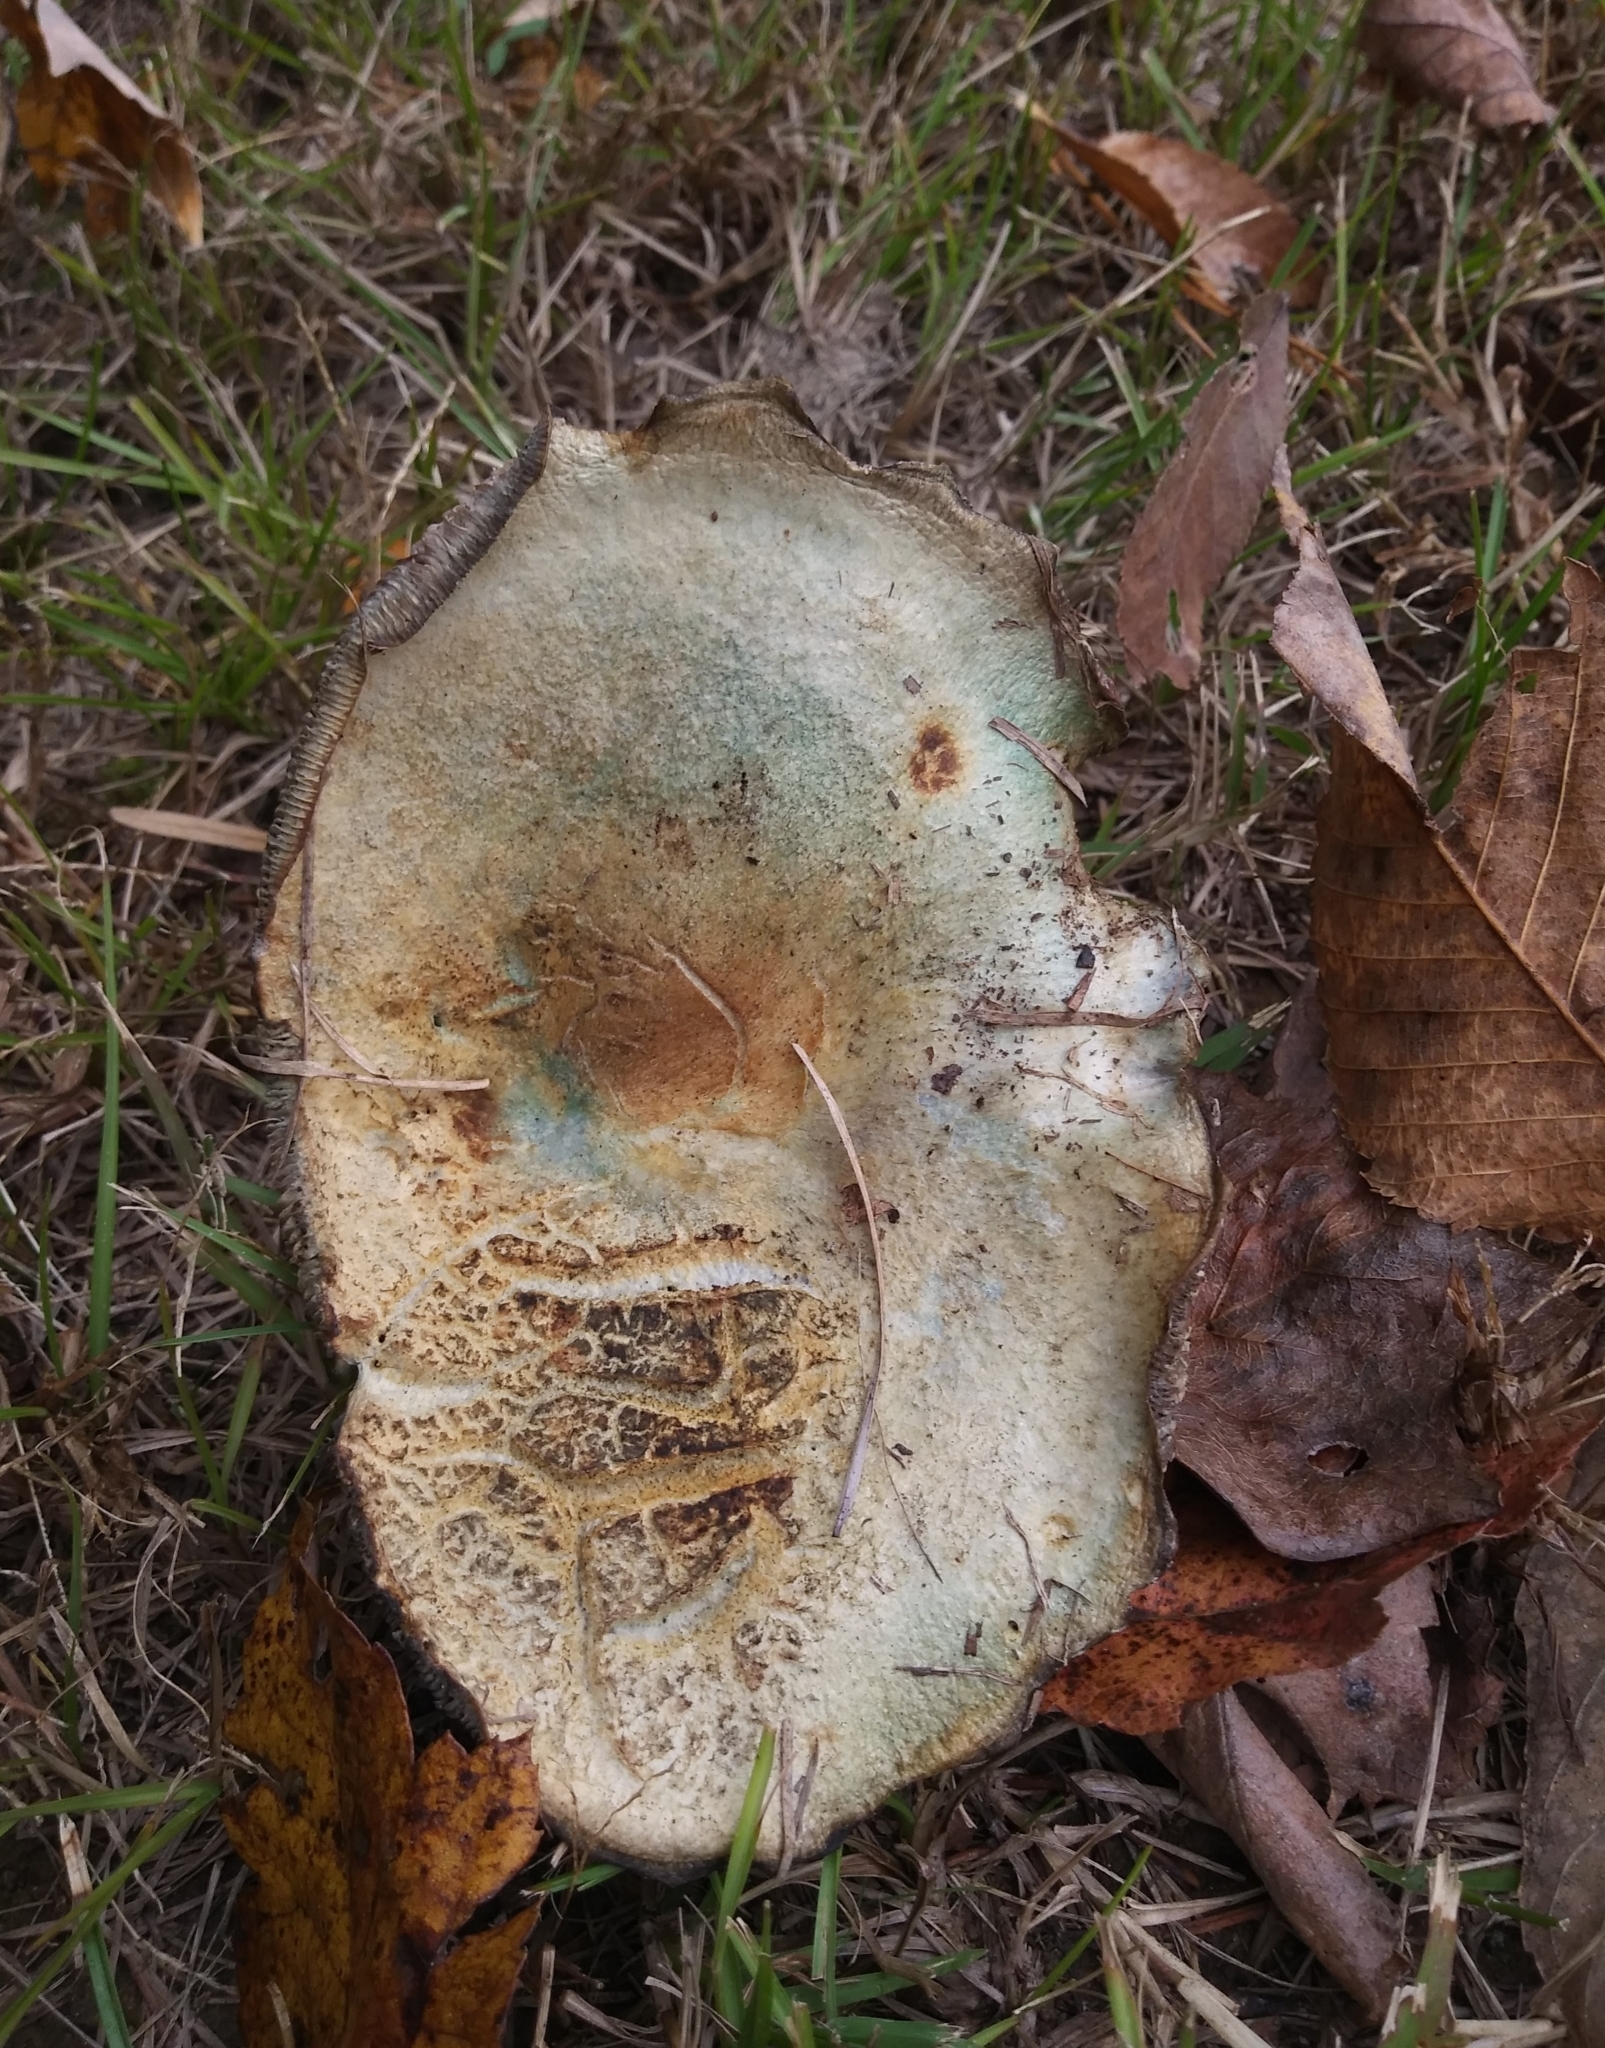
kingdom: Fungi
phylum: Basidiomycota
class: Agaricomycetes
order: Russulales
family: Russulaceae
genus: Lactarius
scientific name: Lactarius paradoxus
